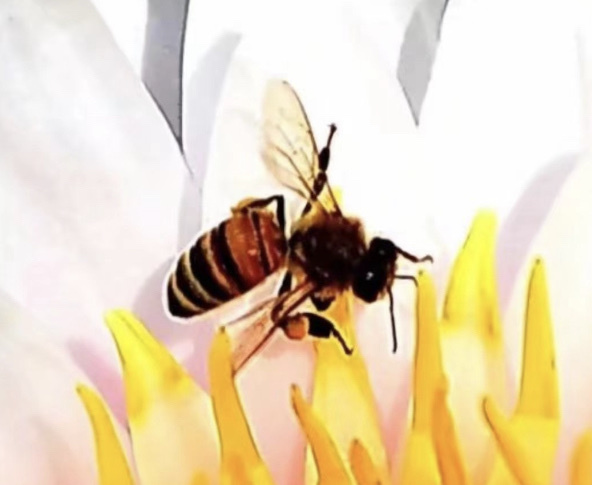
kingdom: Animalia
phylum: Arthropoda
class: Insecta
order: Hymenoptera
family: Apidae
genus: Apis
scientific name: Apis cerana
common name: Honey bee
